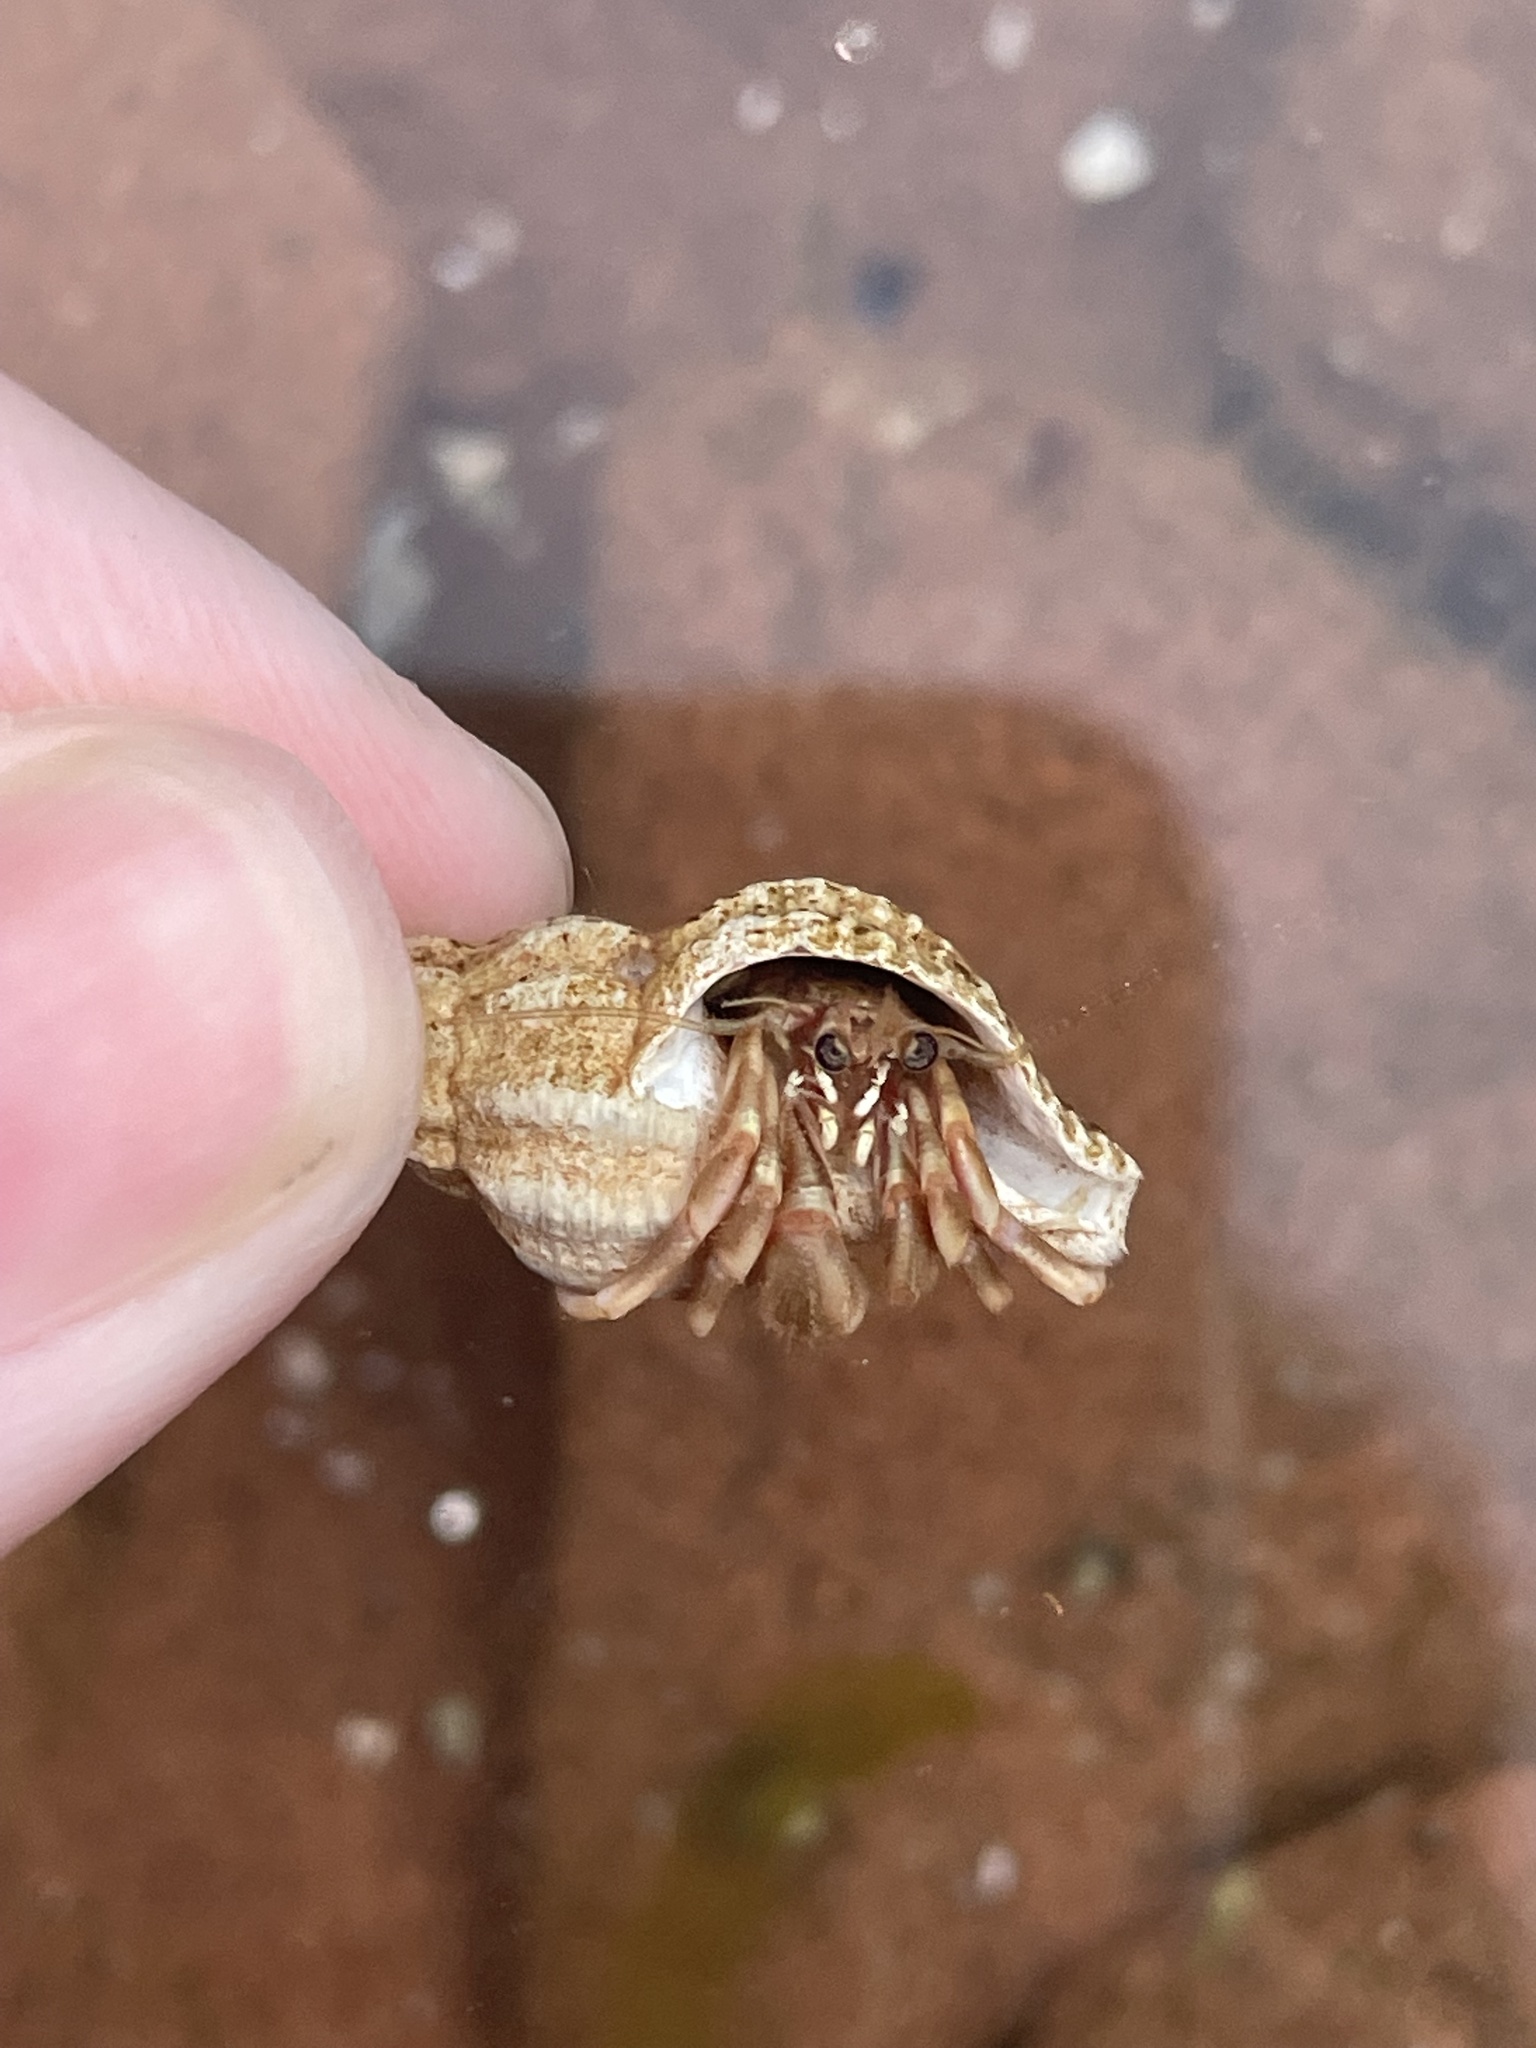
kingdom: Animalia
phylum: Arthropoda
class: Malacostraca
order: Decapoda
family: Paguridae
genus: Pagurus
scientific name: Pagurus longicarpus
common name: Long-armed hermit crab
